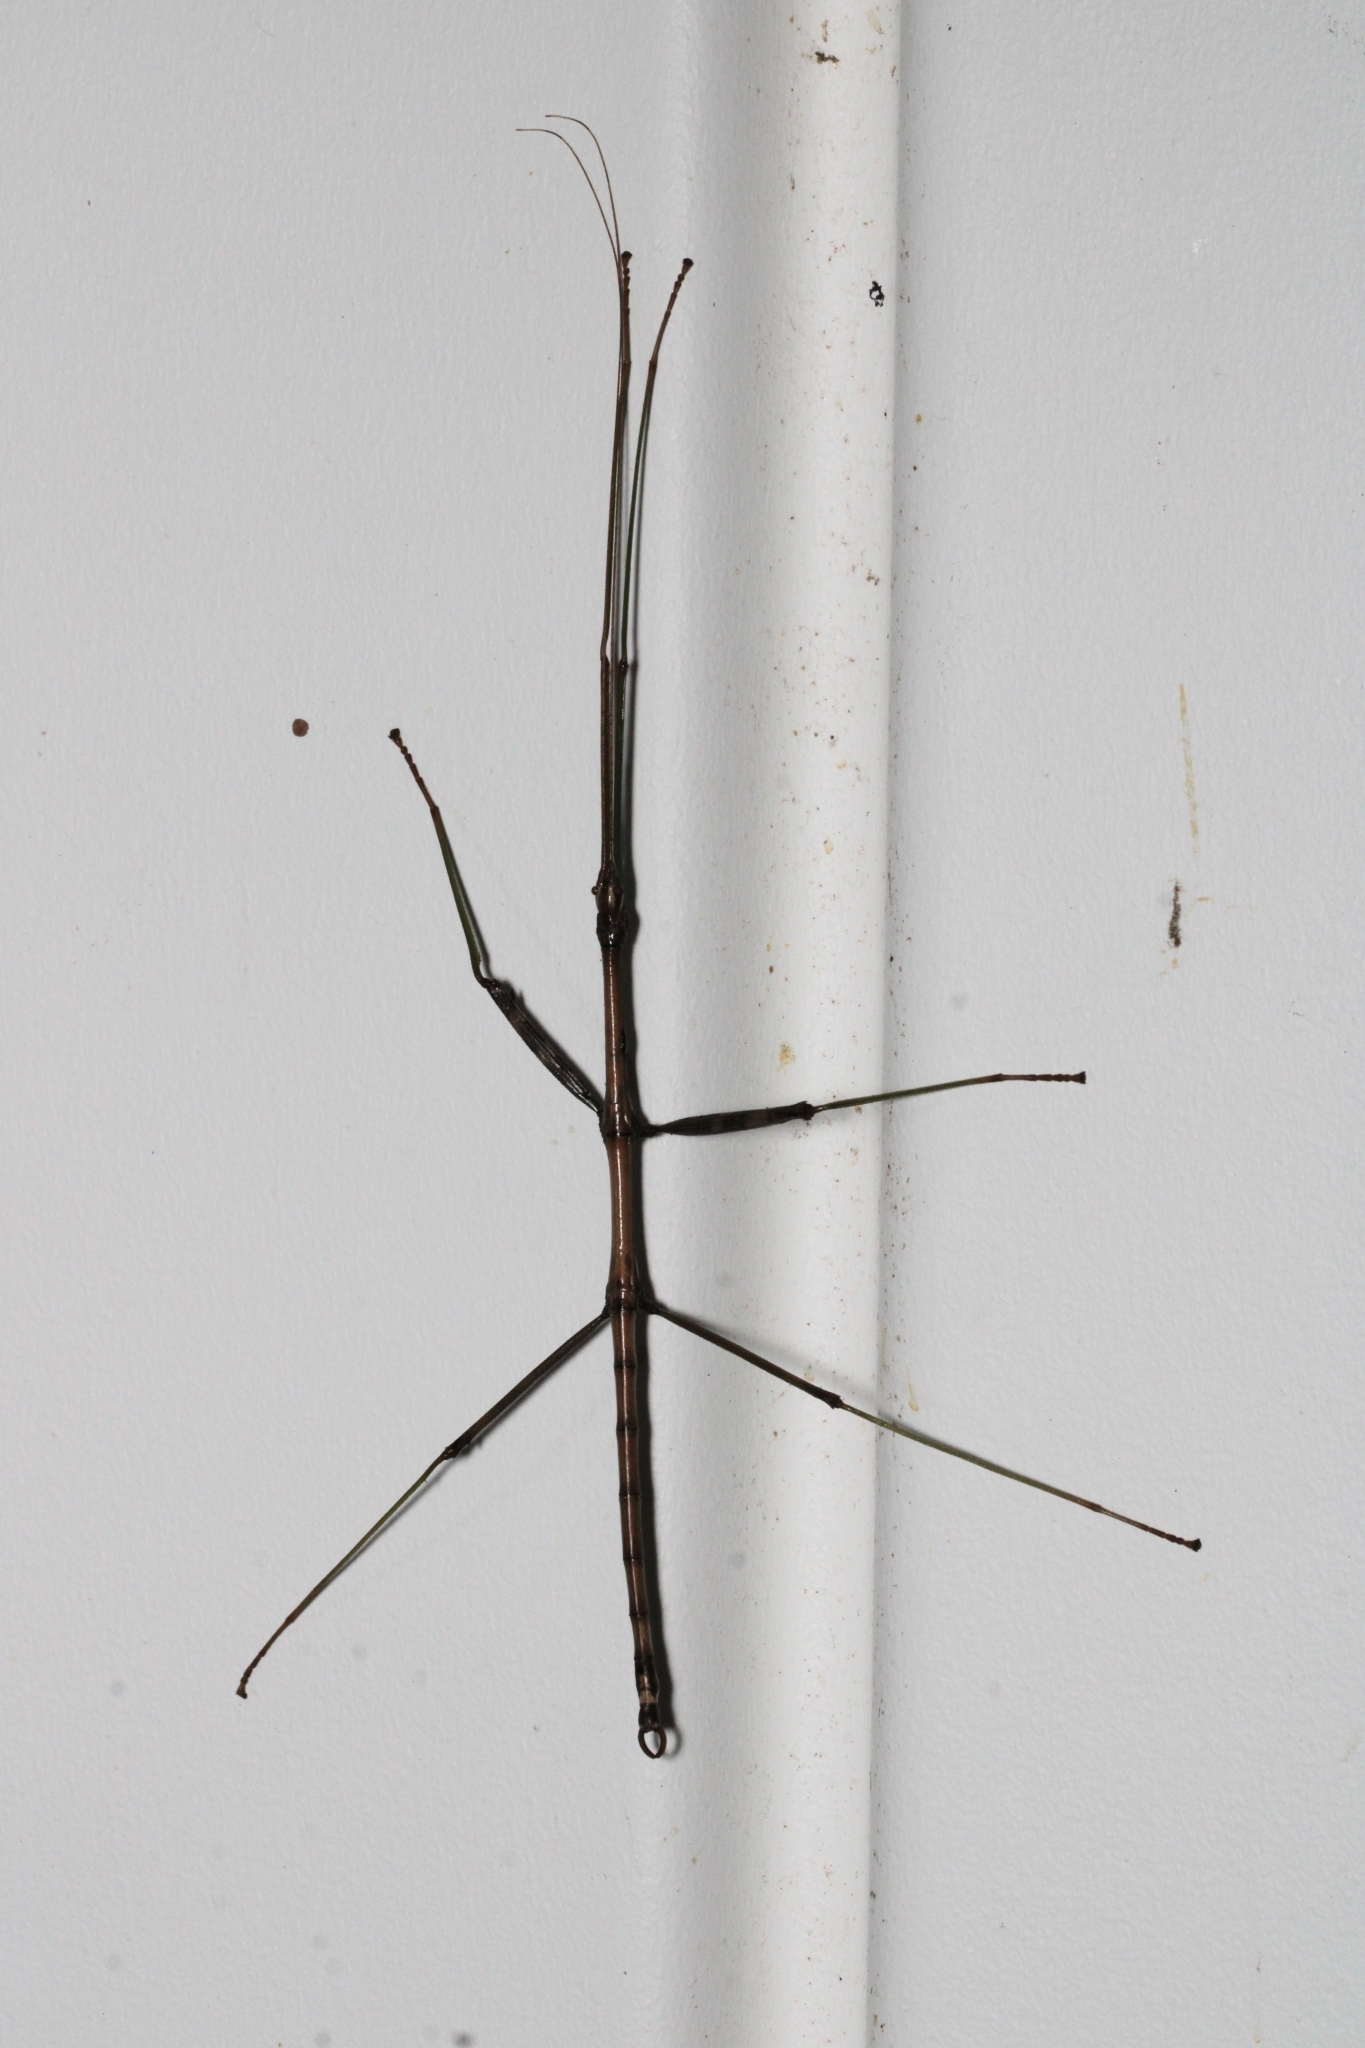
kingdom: Animalia
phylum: Arthropoda
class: Insecta
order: Phasmida
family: Diapheromeridae
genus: Diapheromera
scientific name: Diapheromera femorata
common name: Common american walkingstick
